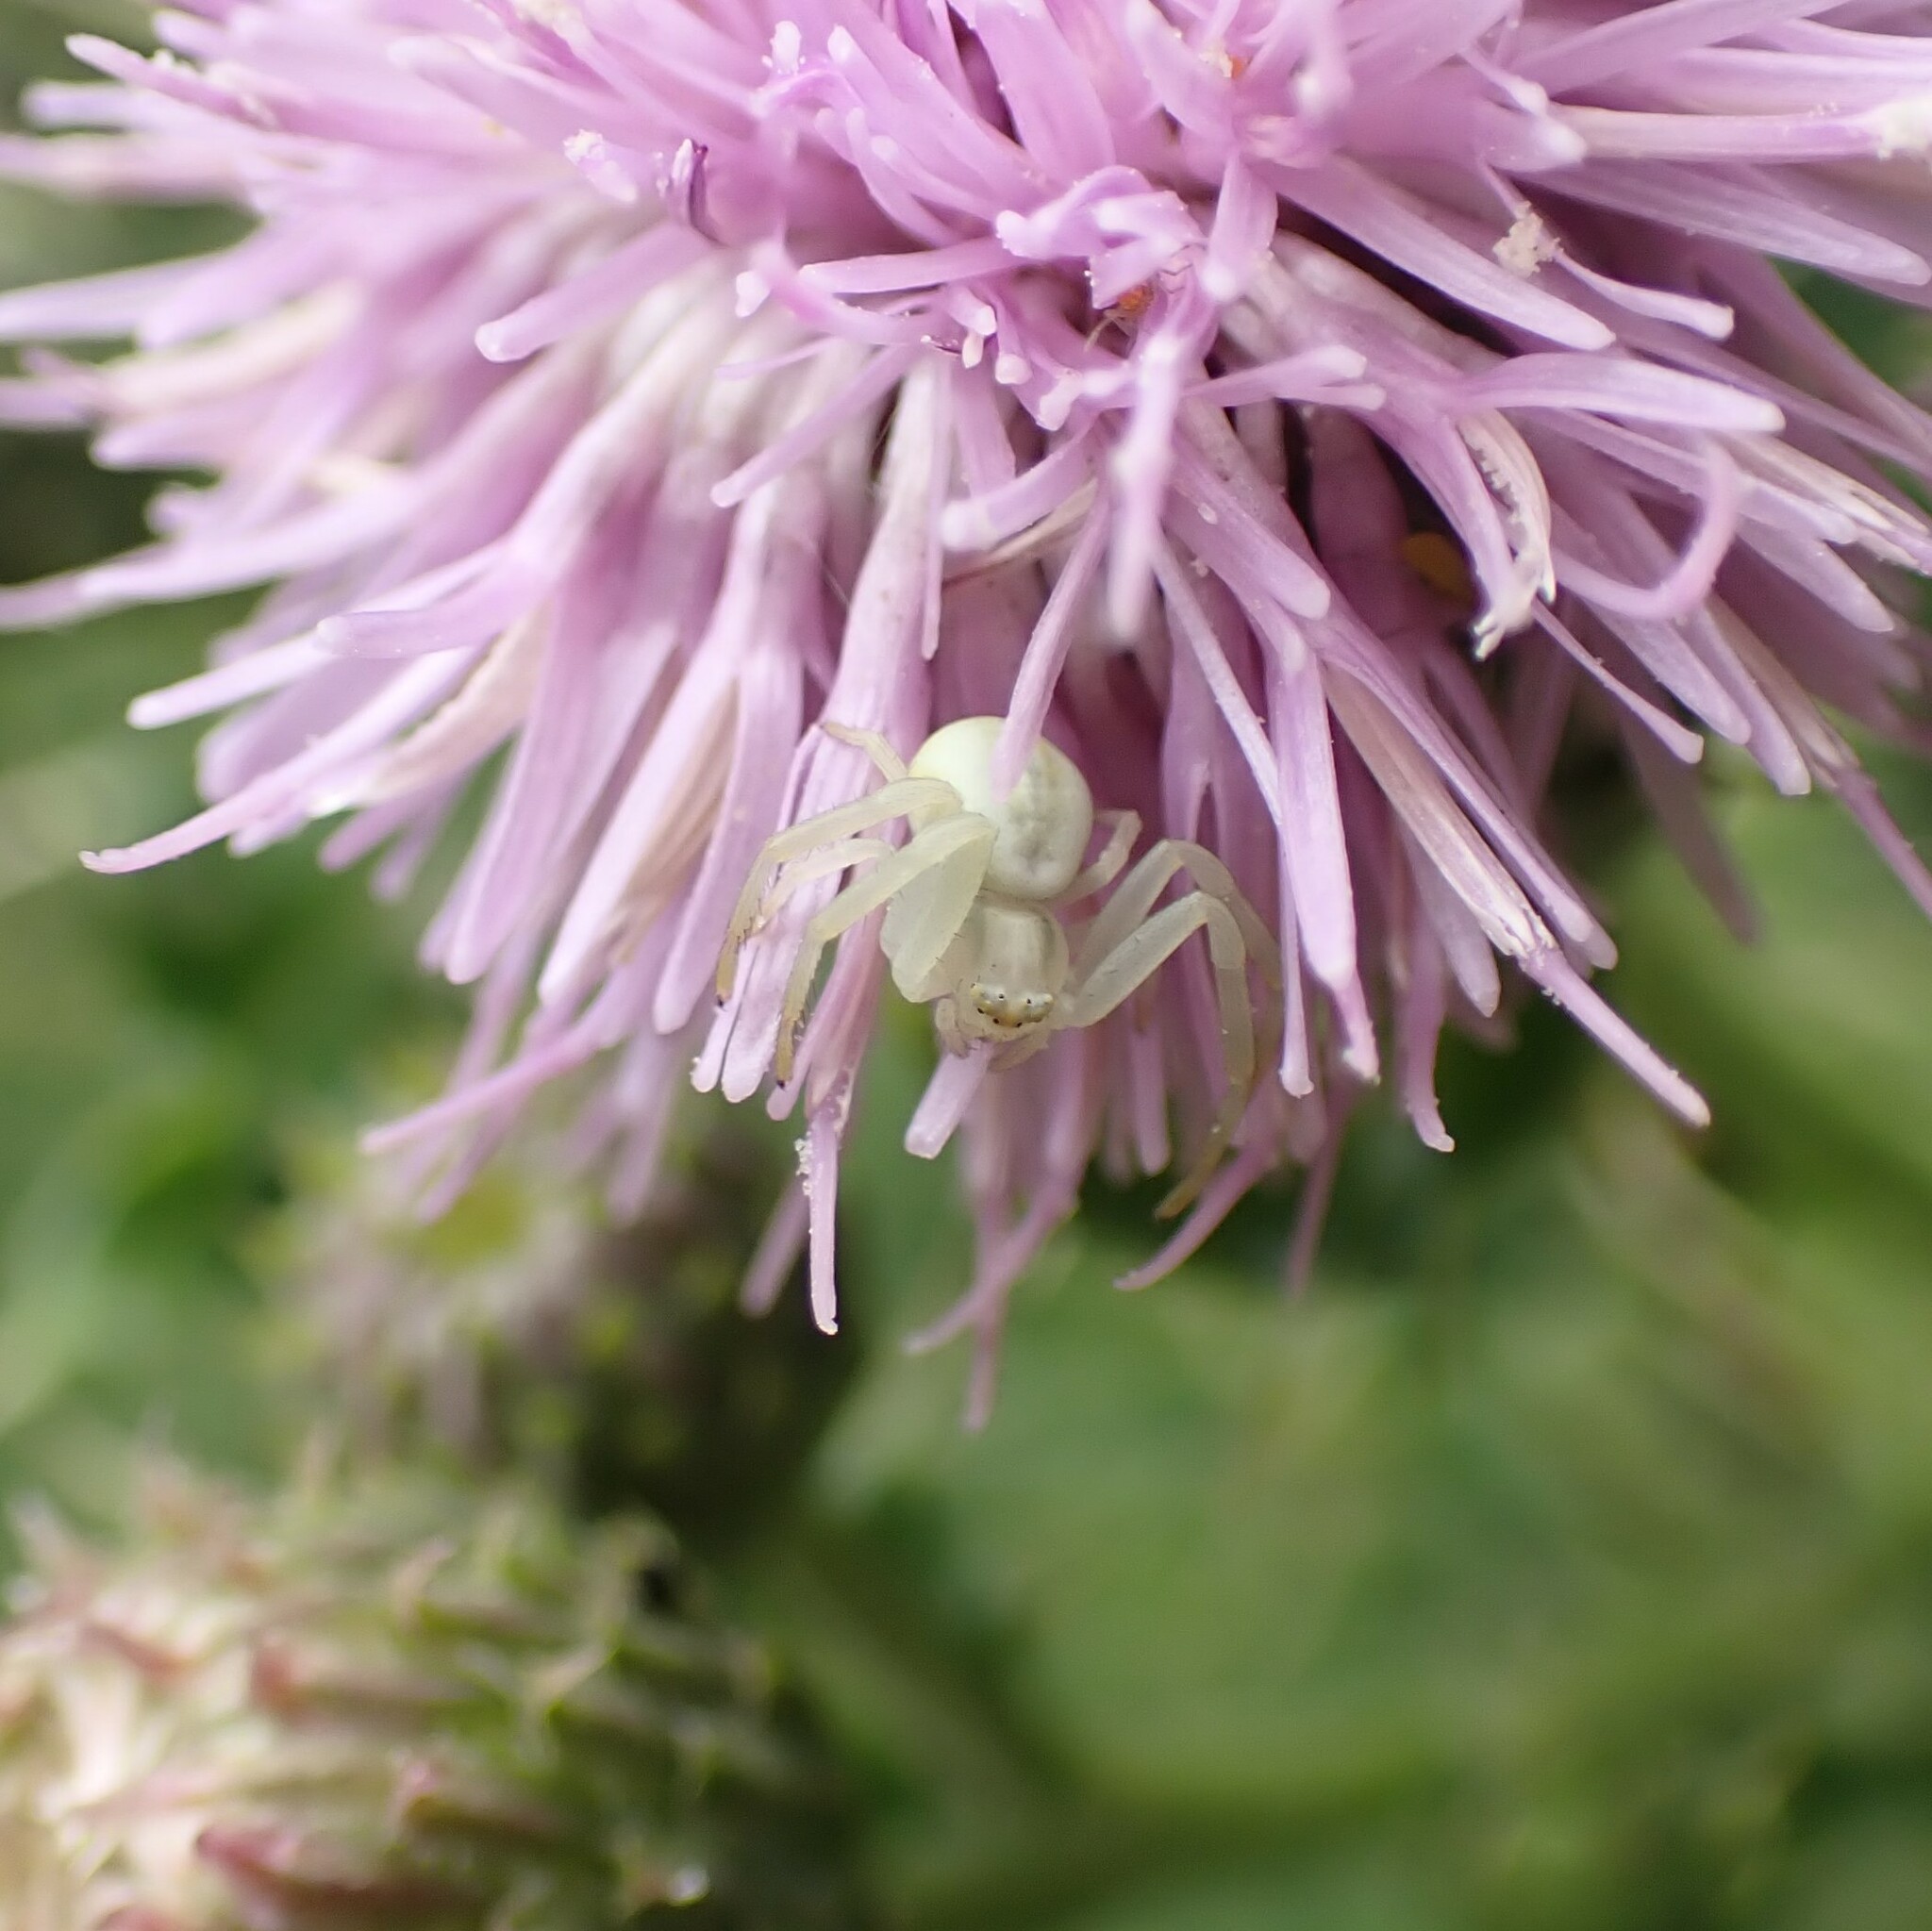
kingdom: Animalia
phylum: Arthropoda
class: Arachnida
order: Araneae
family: Thomisidae
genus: Misumena
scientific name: Misumena vatia
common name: Goldenrod crab spider
